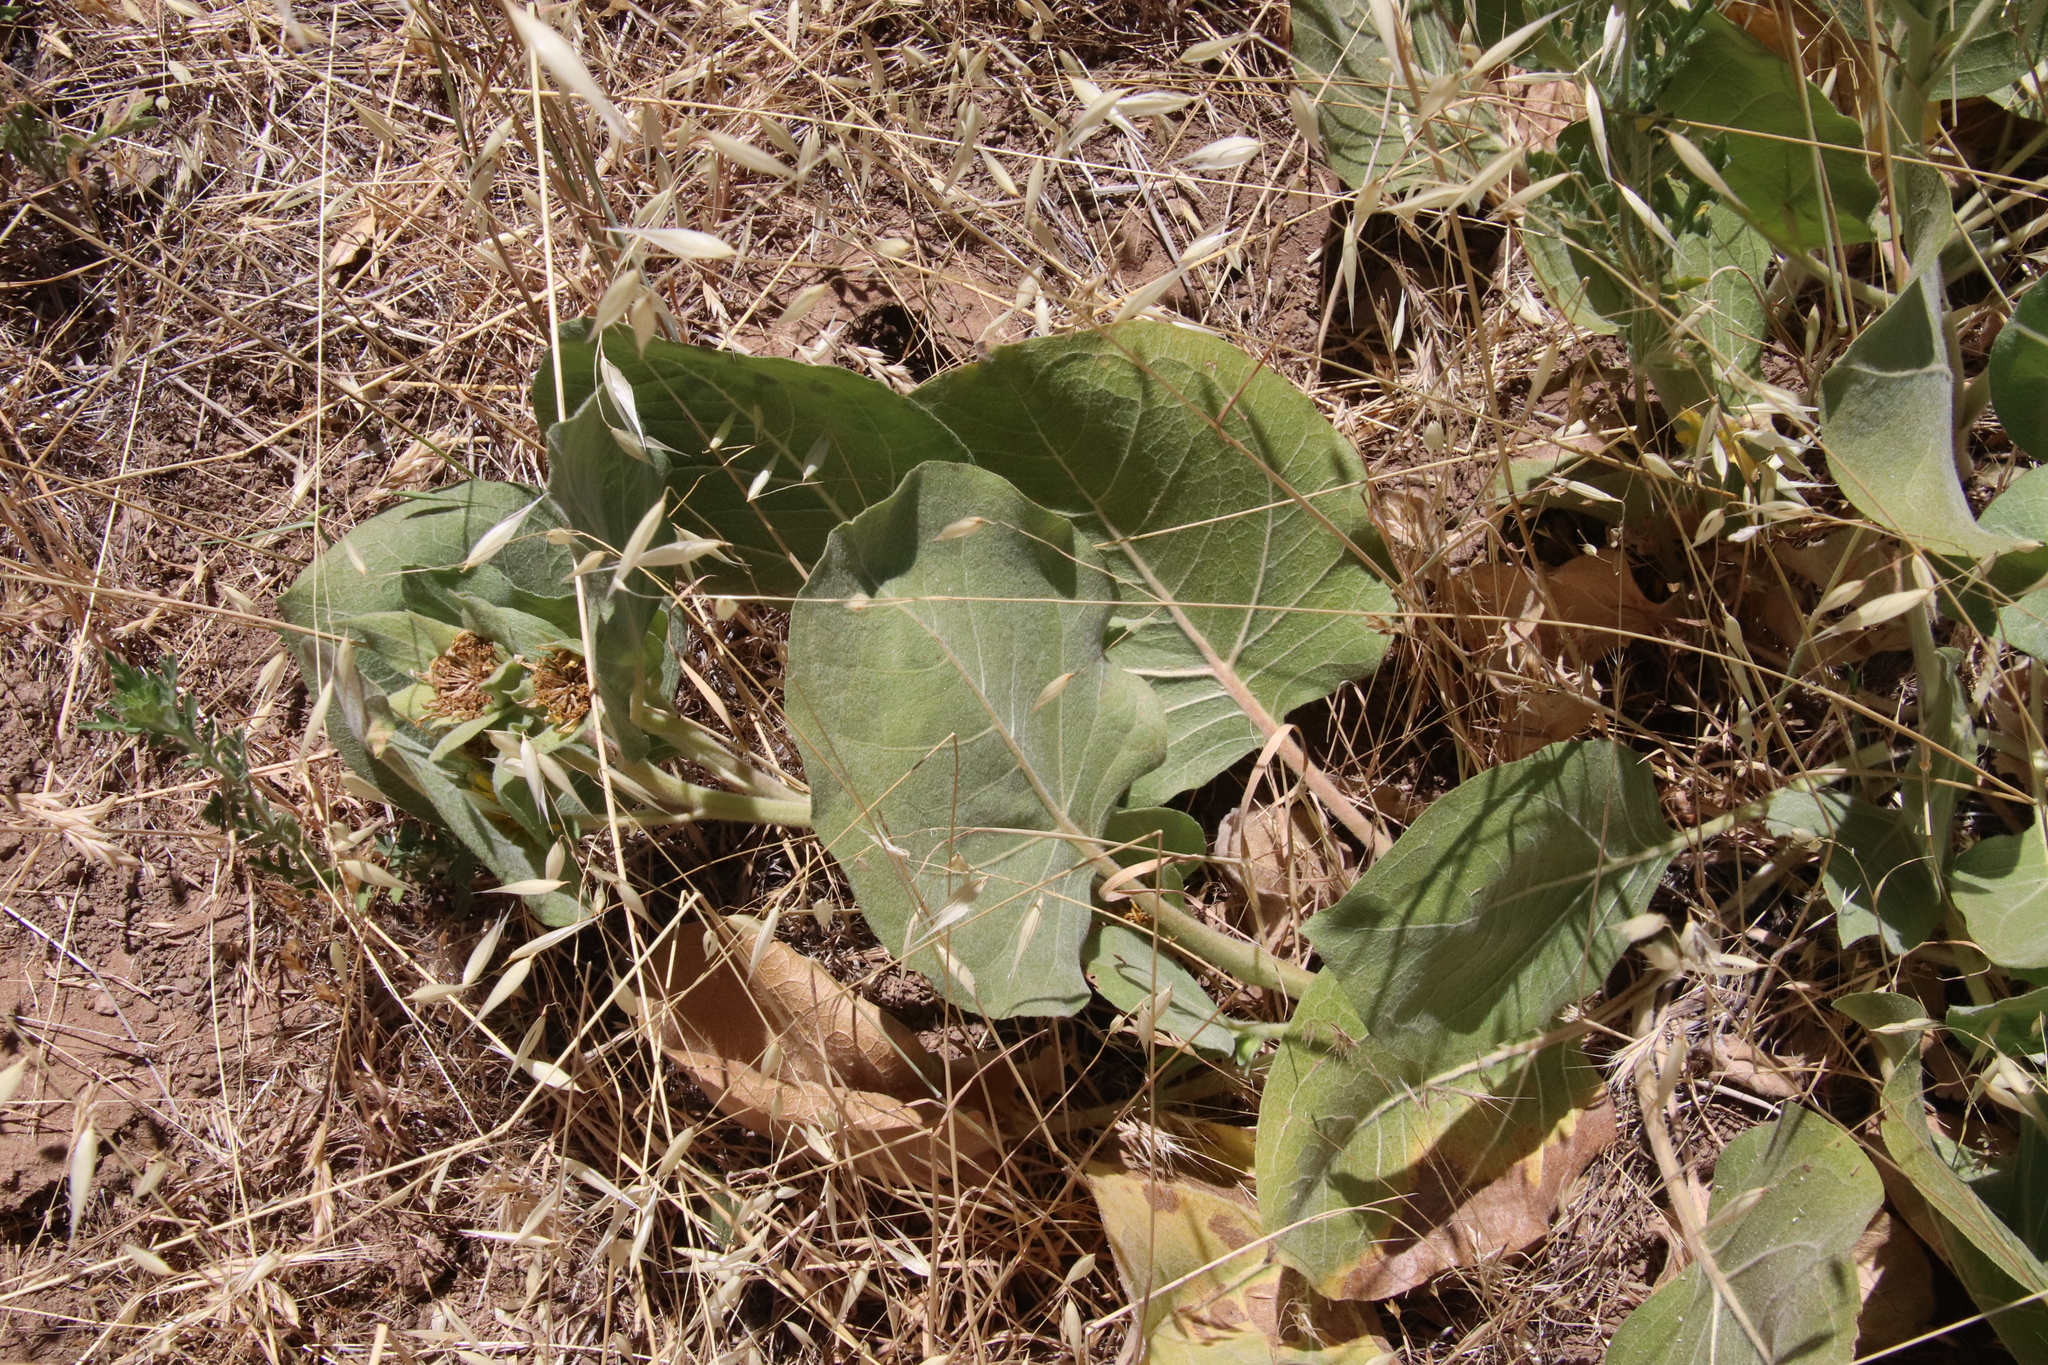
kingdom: Plantae
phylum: Tracheophyta
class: Magnoliopsida
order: Asterales
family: Asteraceae
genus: Agnorhiza
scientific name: Agnorhiza ovata
